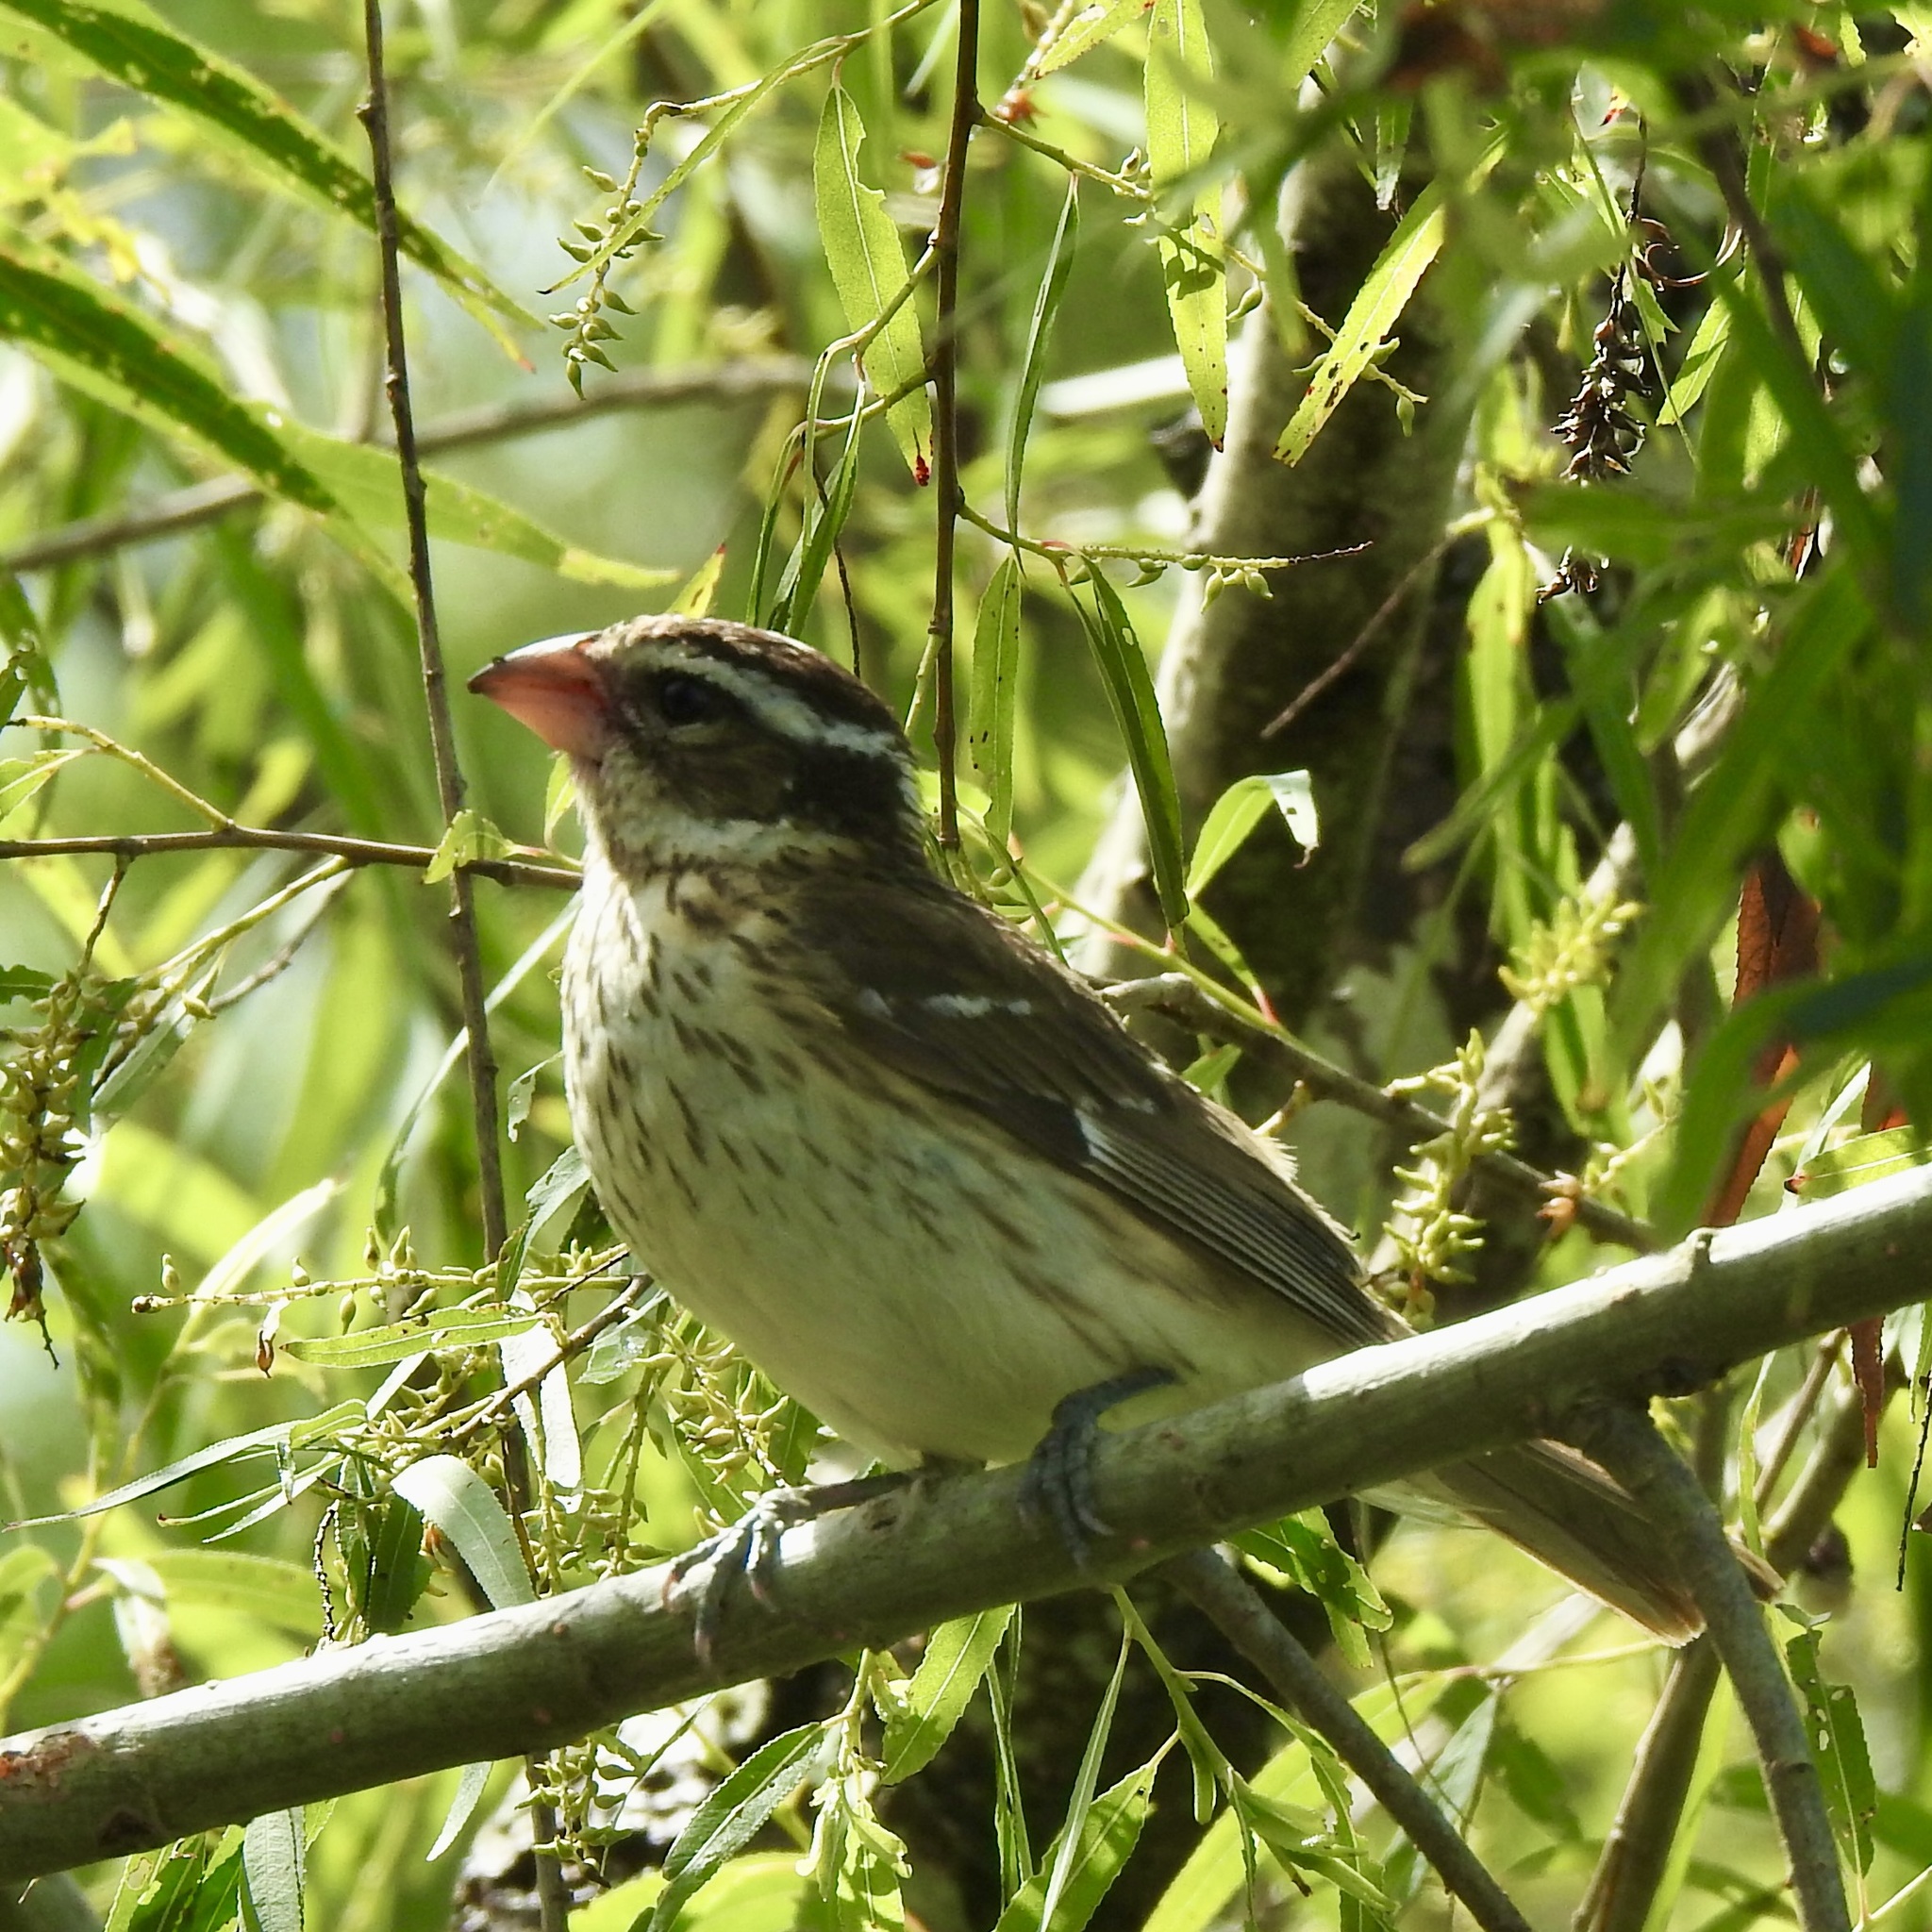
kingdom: Animalia
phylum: Chordata
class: Aves
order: Passeriformes
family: Cardinalidae
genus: Pheucticus
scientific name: Pheucticus ludovicianus
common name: Rose-breasted grosbeak
